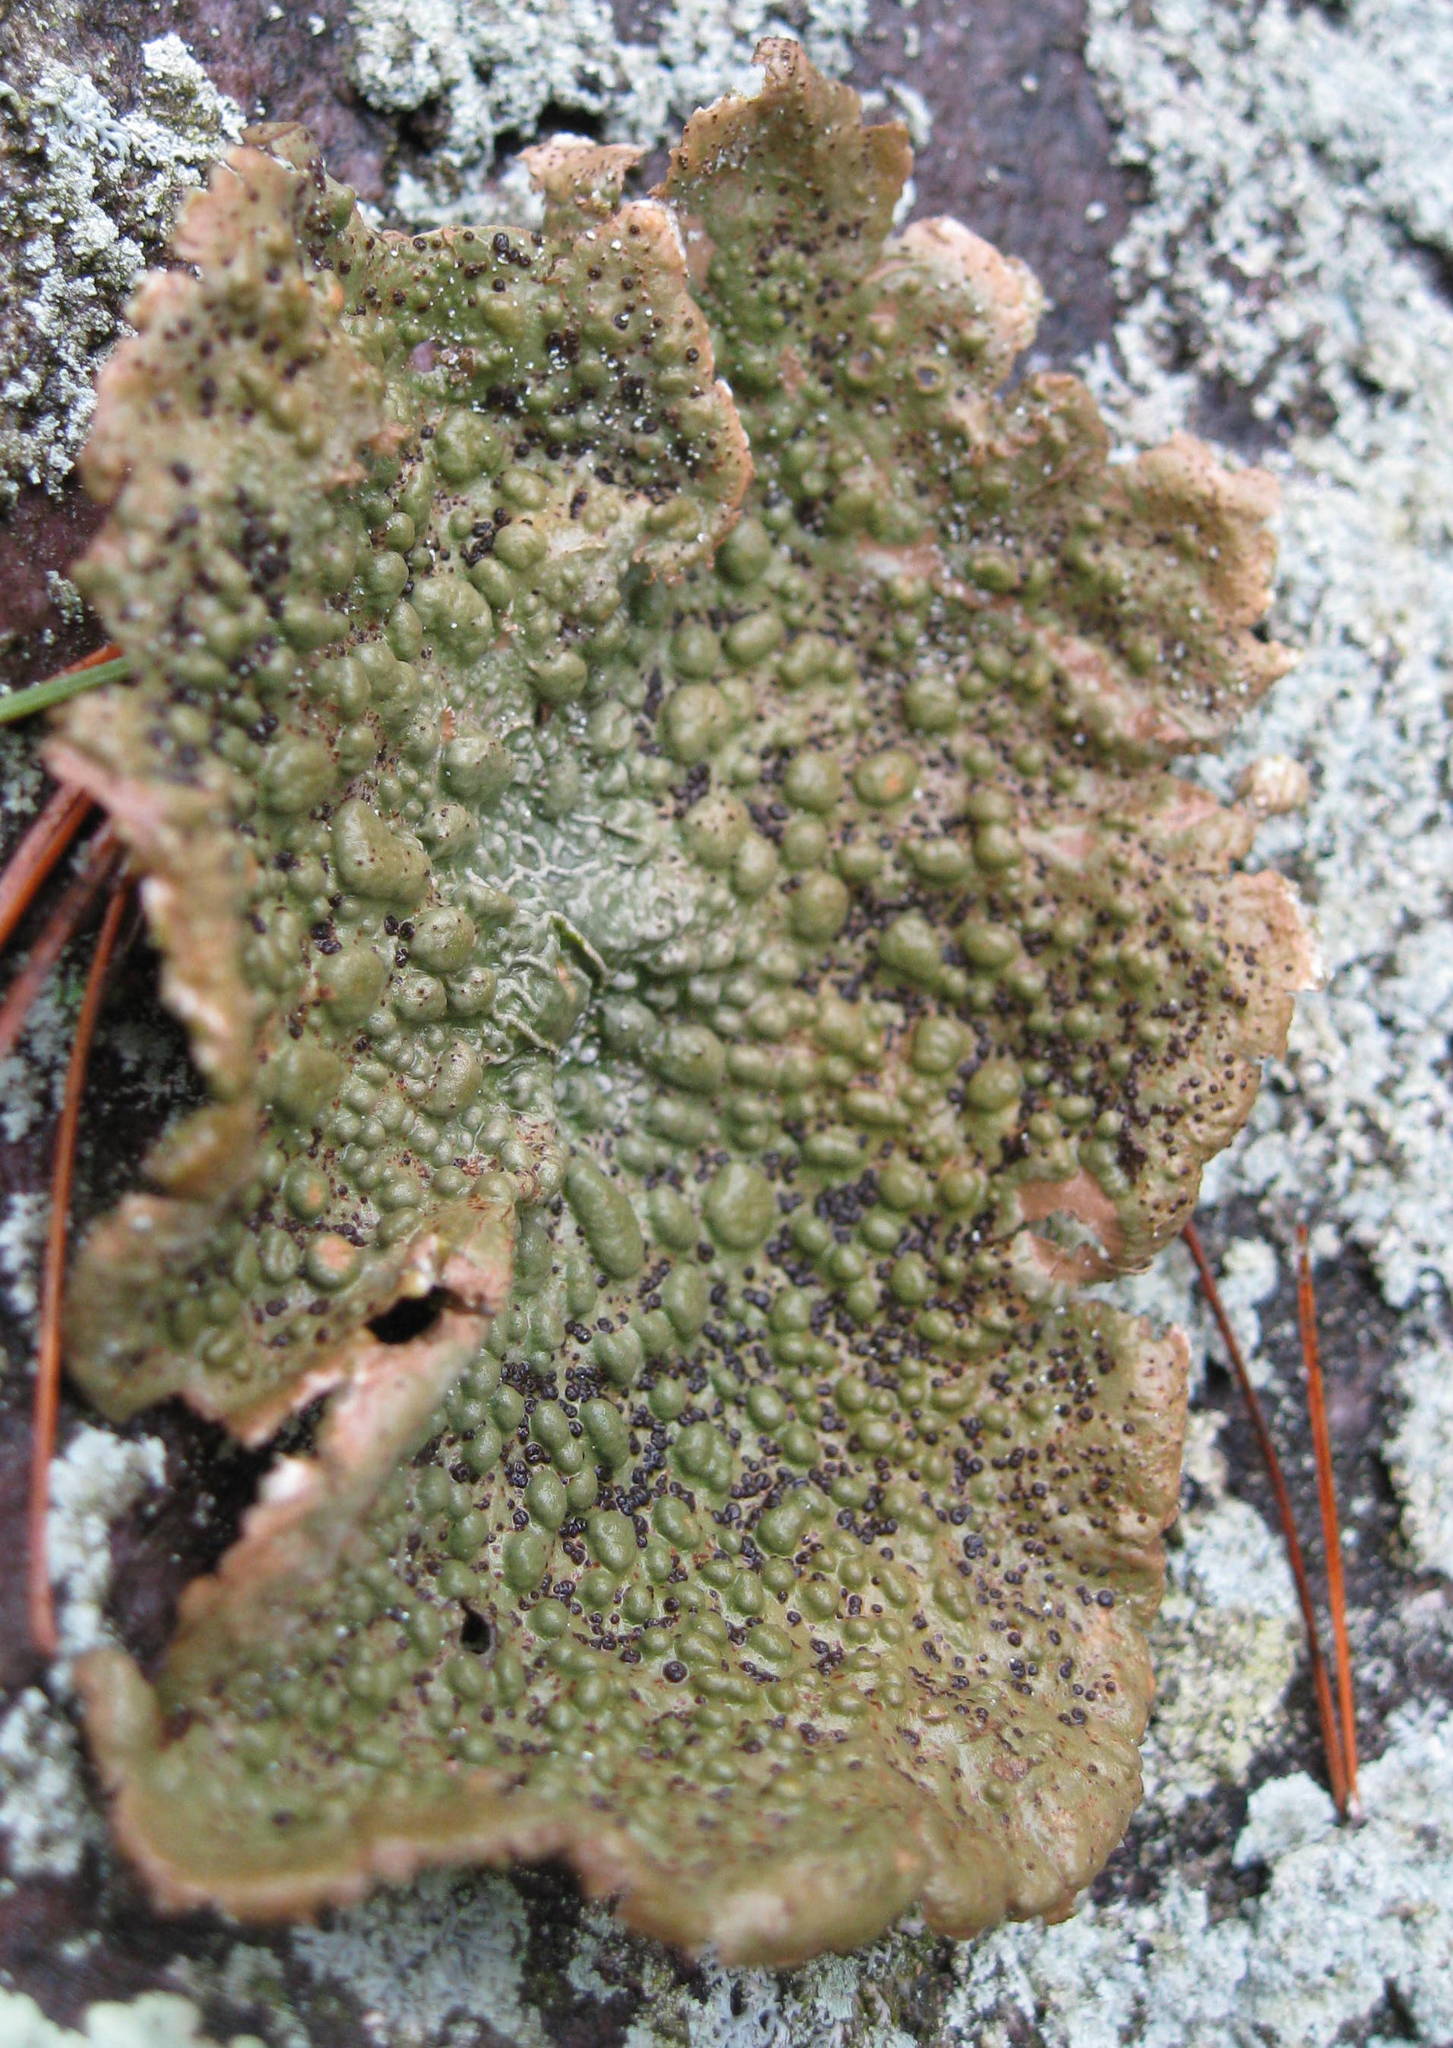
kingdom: Fungi
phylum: Ascomycota
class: Lecanoromycetes
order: Umbilicariales
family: Umbilicariaceae
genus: Lasallia
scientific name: Lasallia papulosa
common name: Common toadskin lichen
